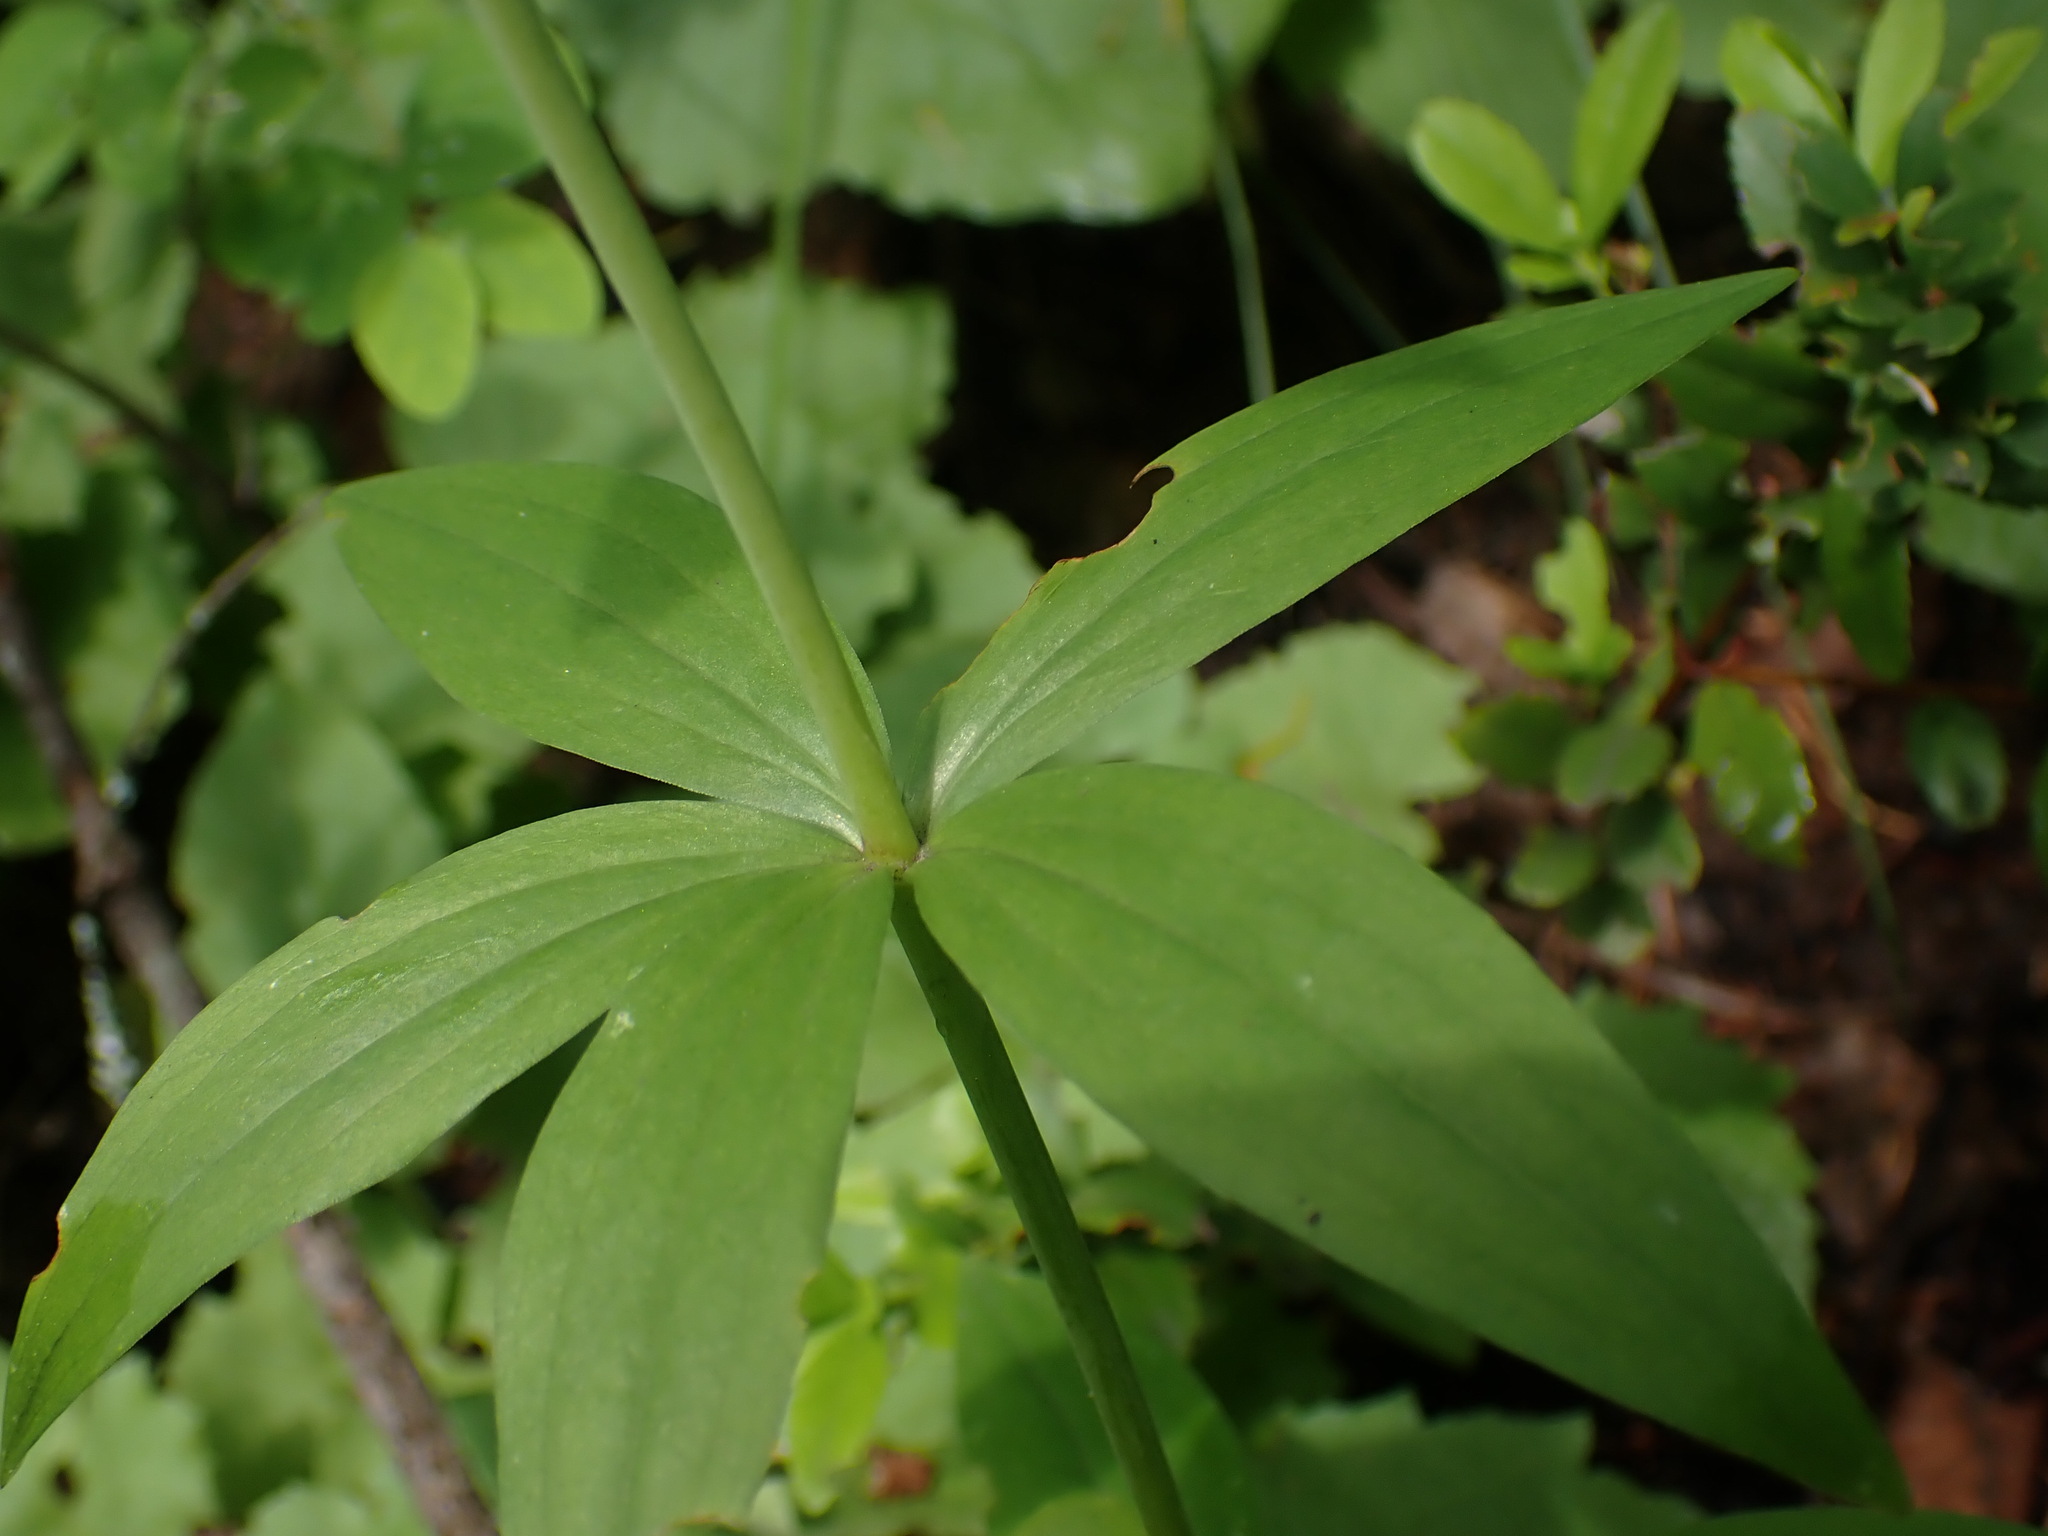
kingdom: Plantae
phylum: Tracheophyta
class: Liliopsida
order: Liliales
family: Liliaceae
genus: Lilium
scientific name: Lilium columbianum
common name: Columbia lily
